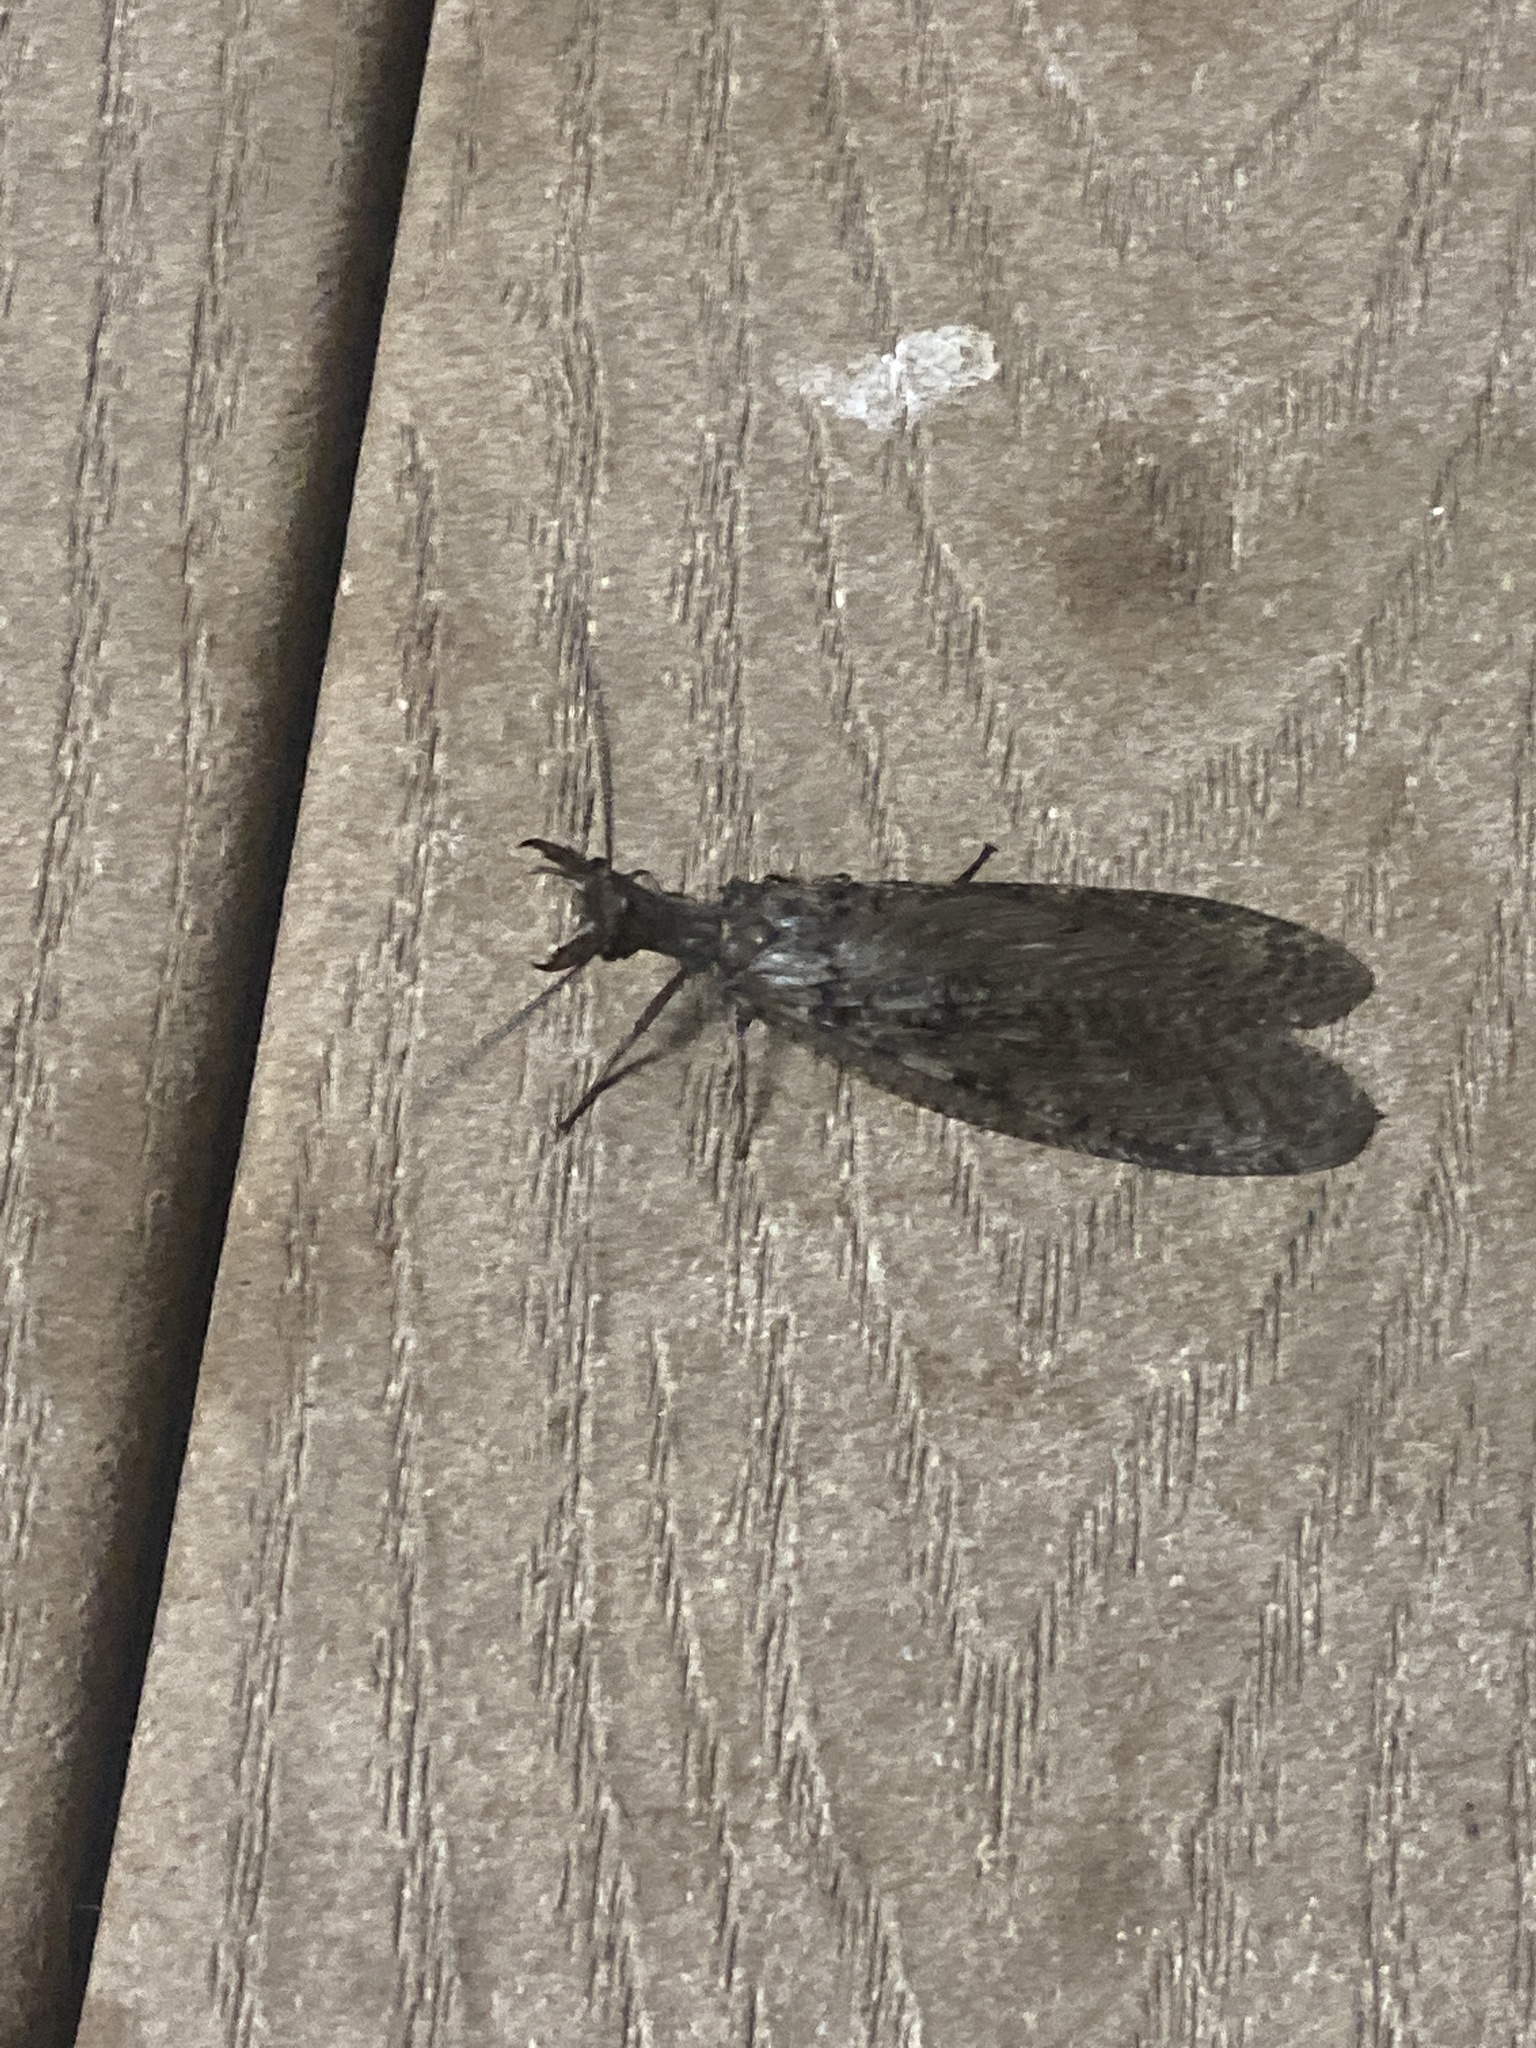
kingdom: Animalia
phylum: Arthropoda
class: Insecta
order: Megaloptera
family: Corydalidae
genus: Corydalus
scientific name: Corydalus cornutus
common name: Dobsonfly
